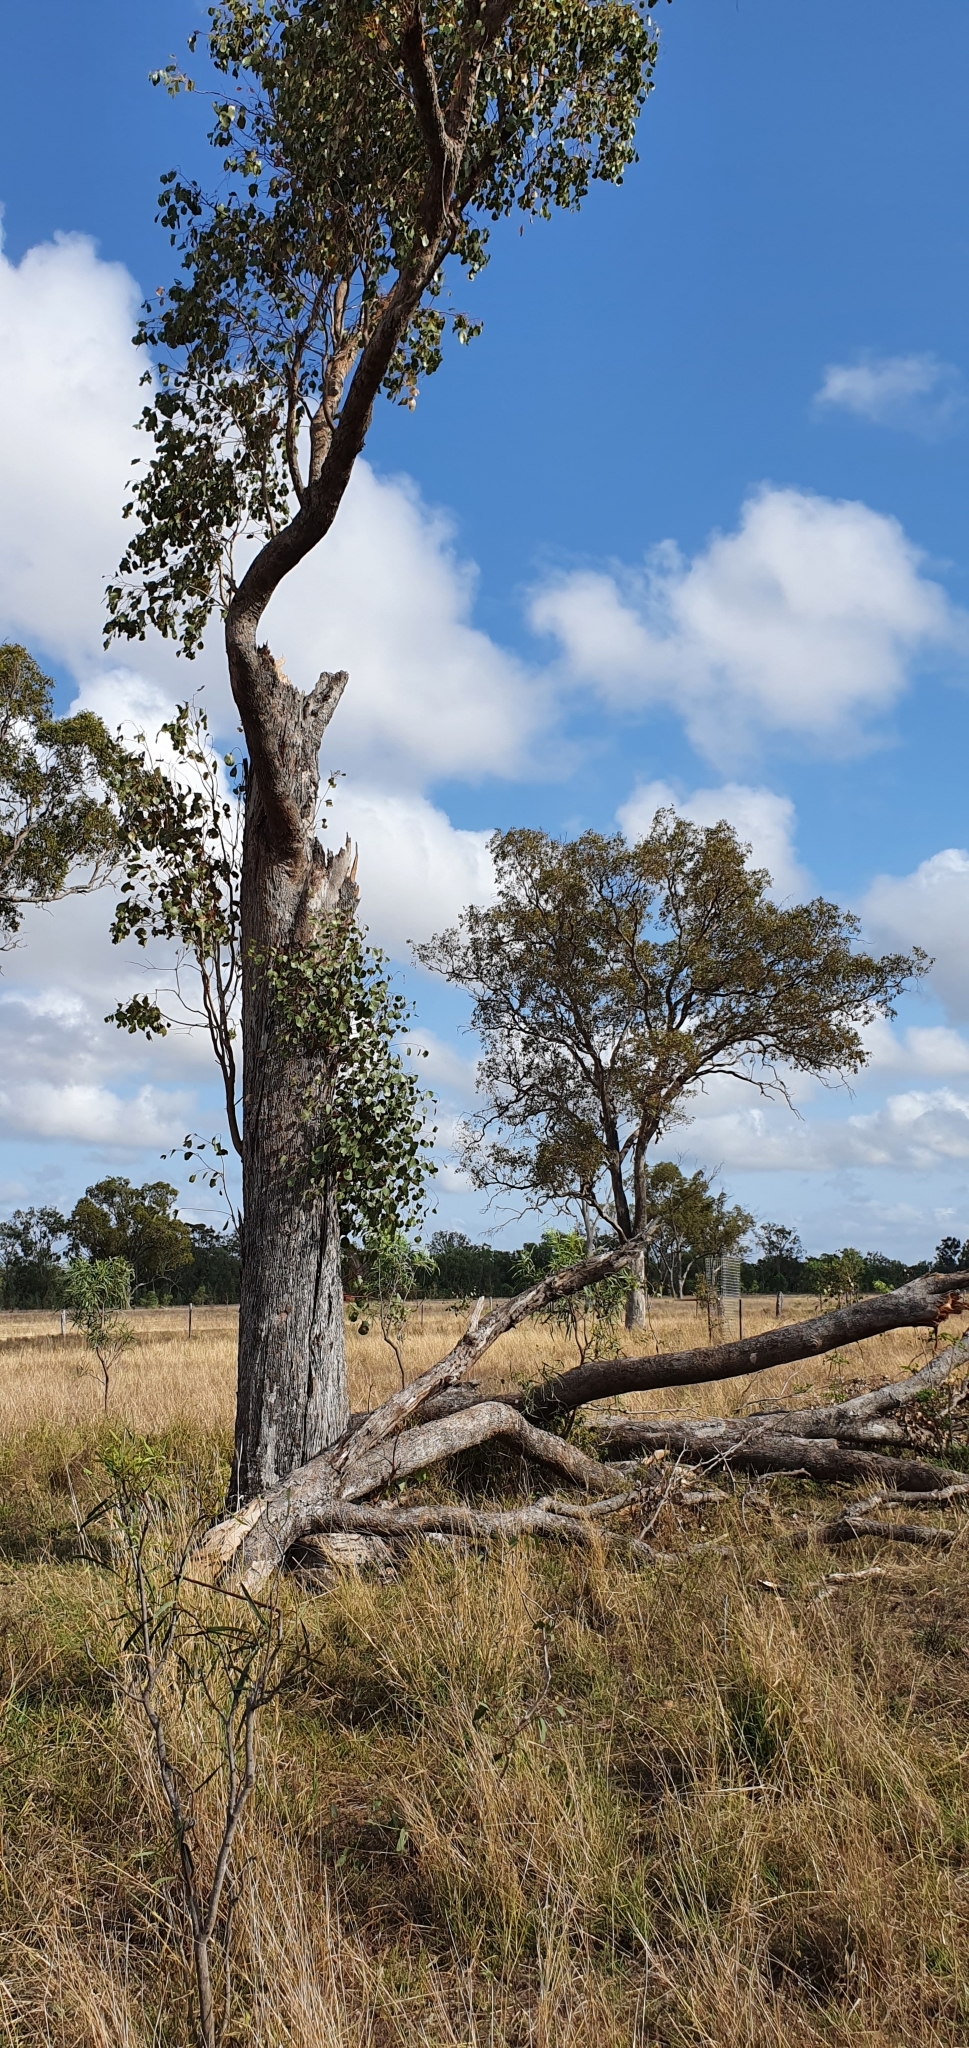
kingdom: Plantae
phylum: Tracheophyta
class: Magnoliopsida
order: Myrtales
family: Myrtaceae
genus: Eucalyptus
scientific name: Eucalyptus populnea
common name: Bimble box
